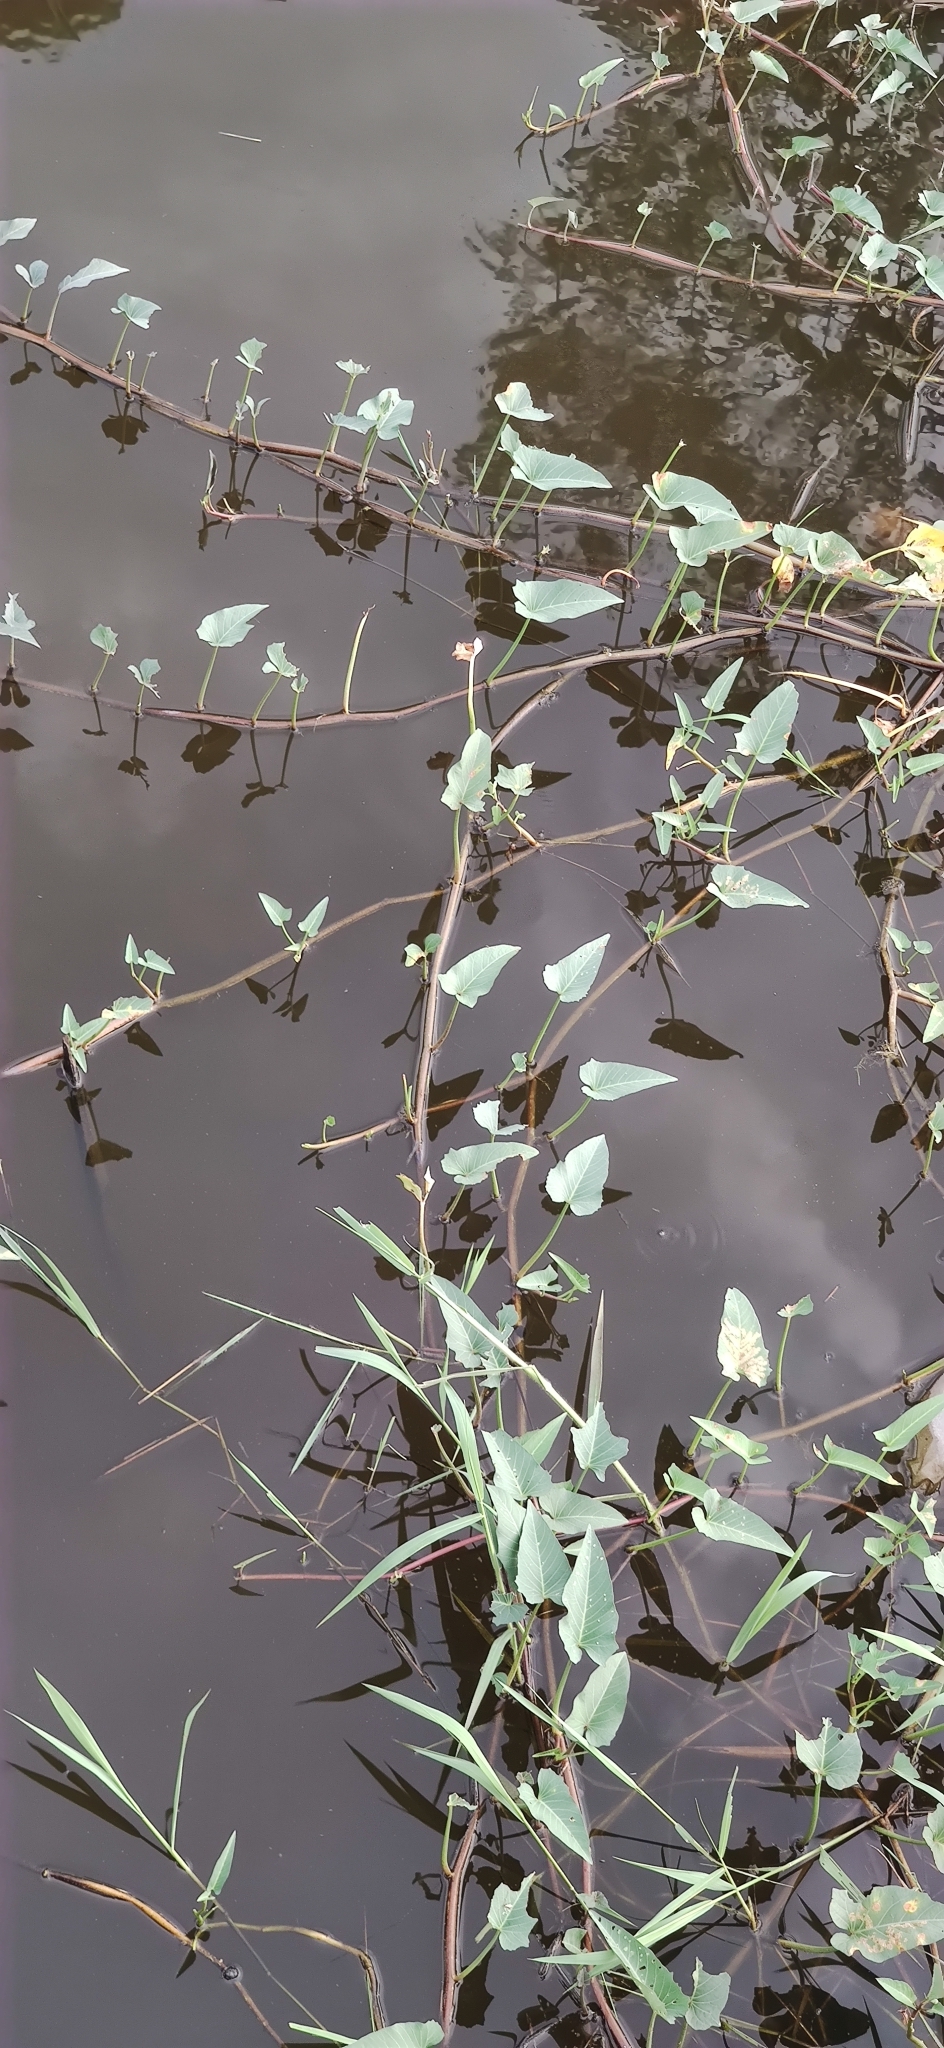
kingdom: Plantae
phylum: Tracheophyta
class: Magnoliopsida
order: Solanales
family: Convolvulaceae
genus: Ipomoea
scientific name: Ipomoea aquatica
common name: Swamp morning-glory
